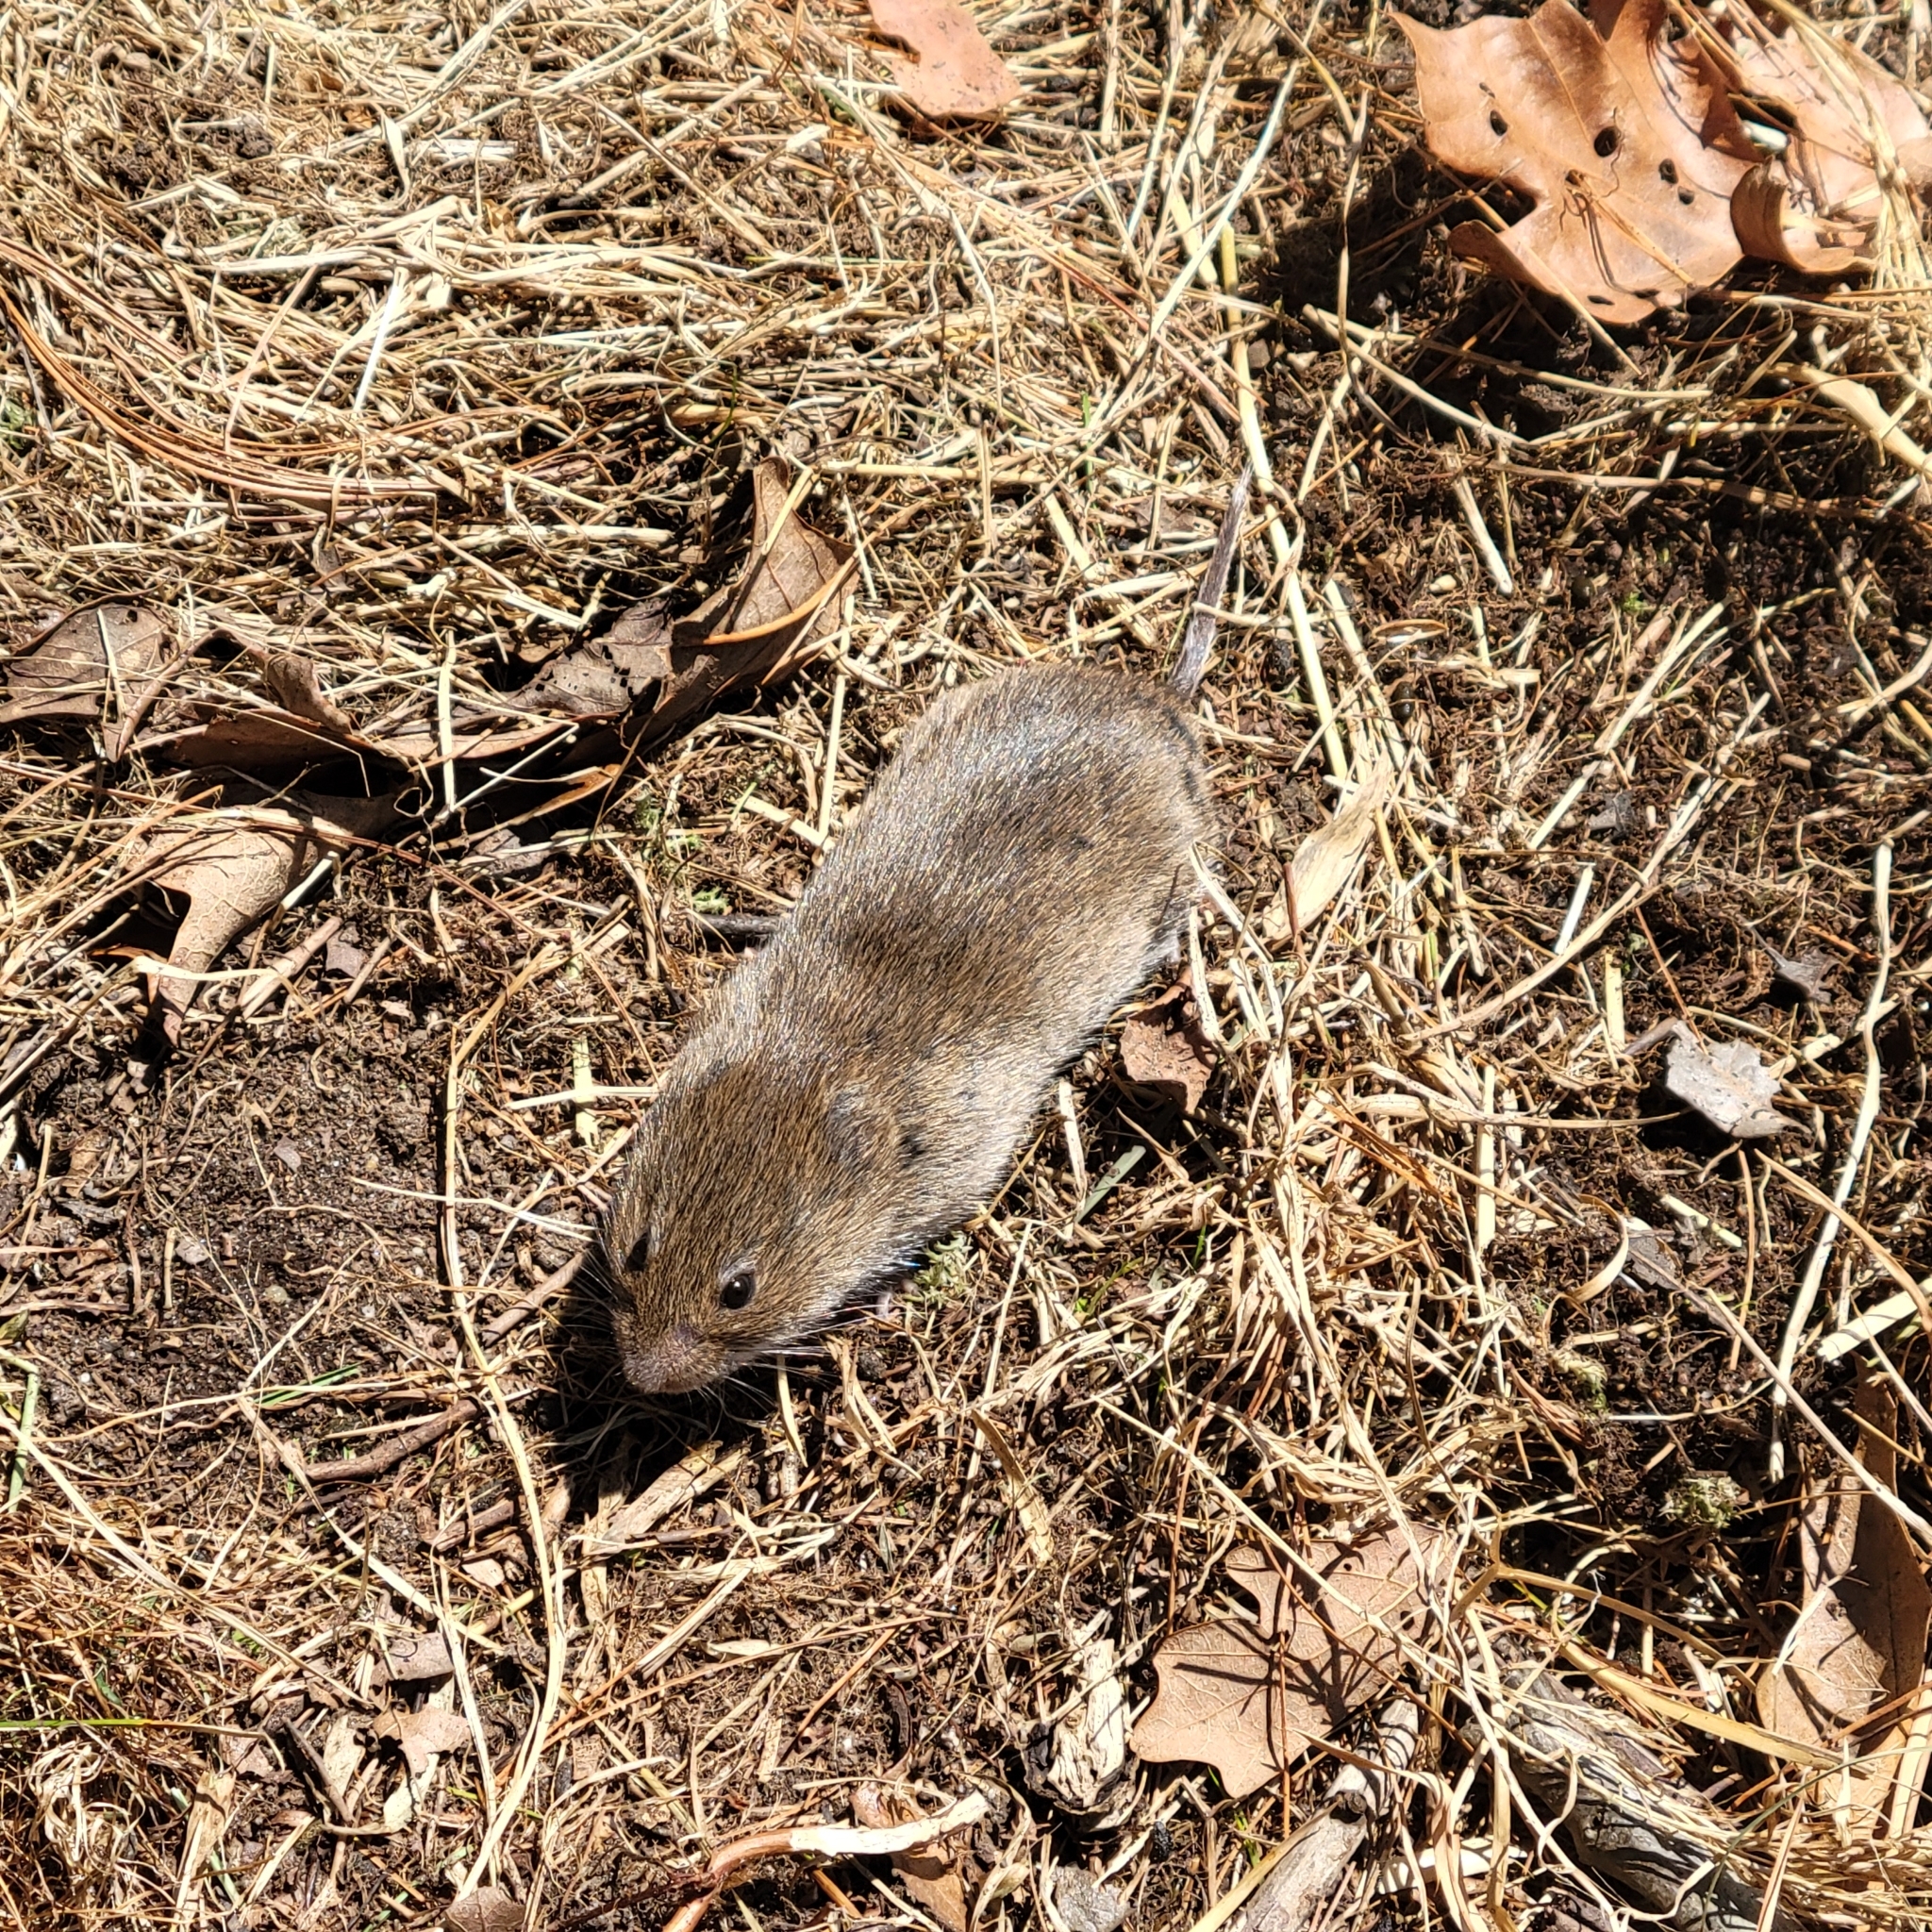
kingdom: Animalia
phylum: Chordata
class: Mammalia
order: Rodentia
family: Cricetidae
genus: Microtus
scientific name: Microtus pennsylvanicus
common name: Meadow vole
